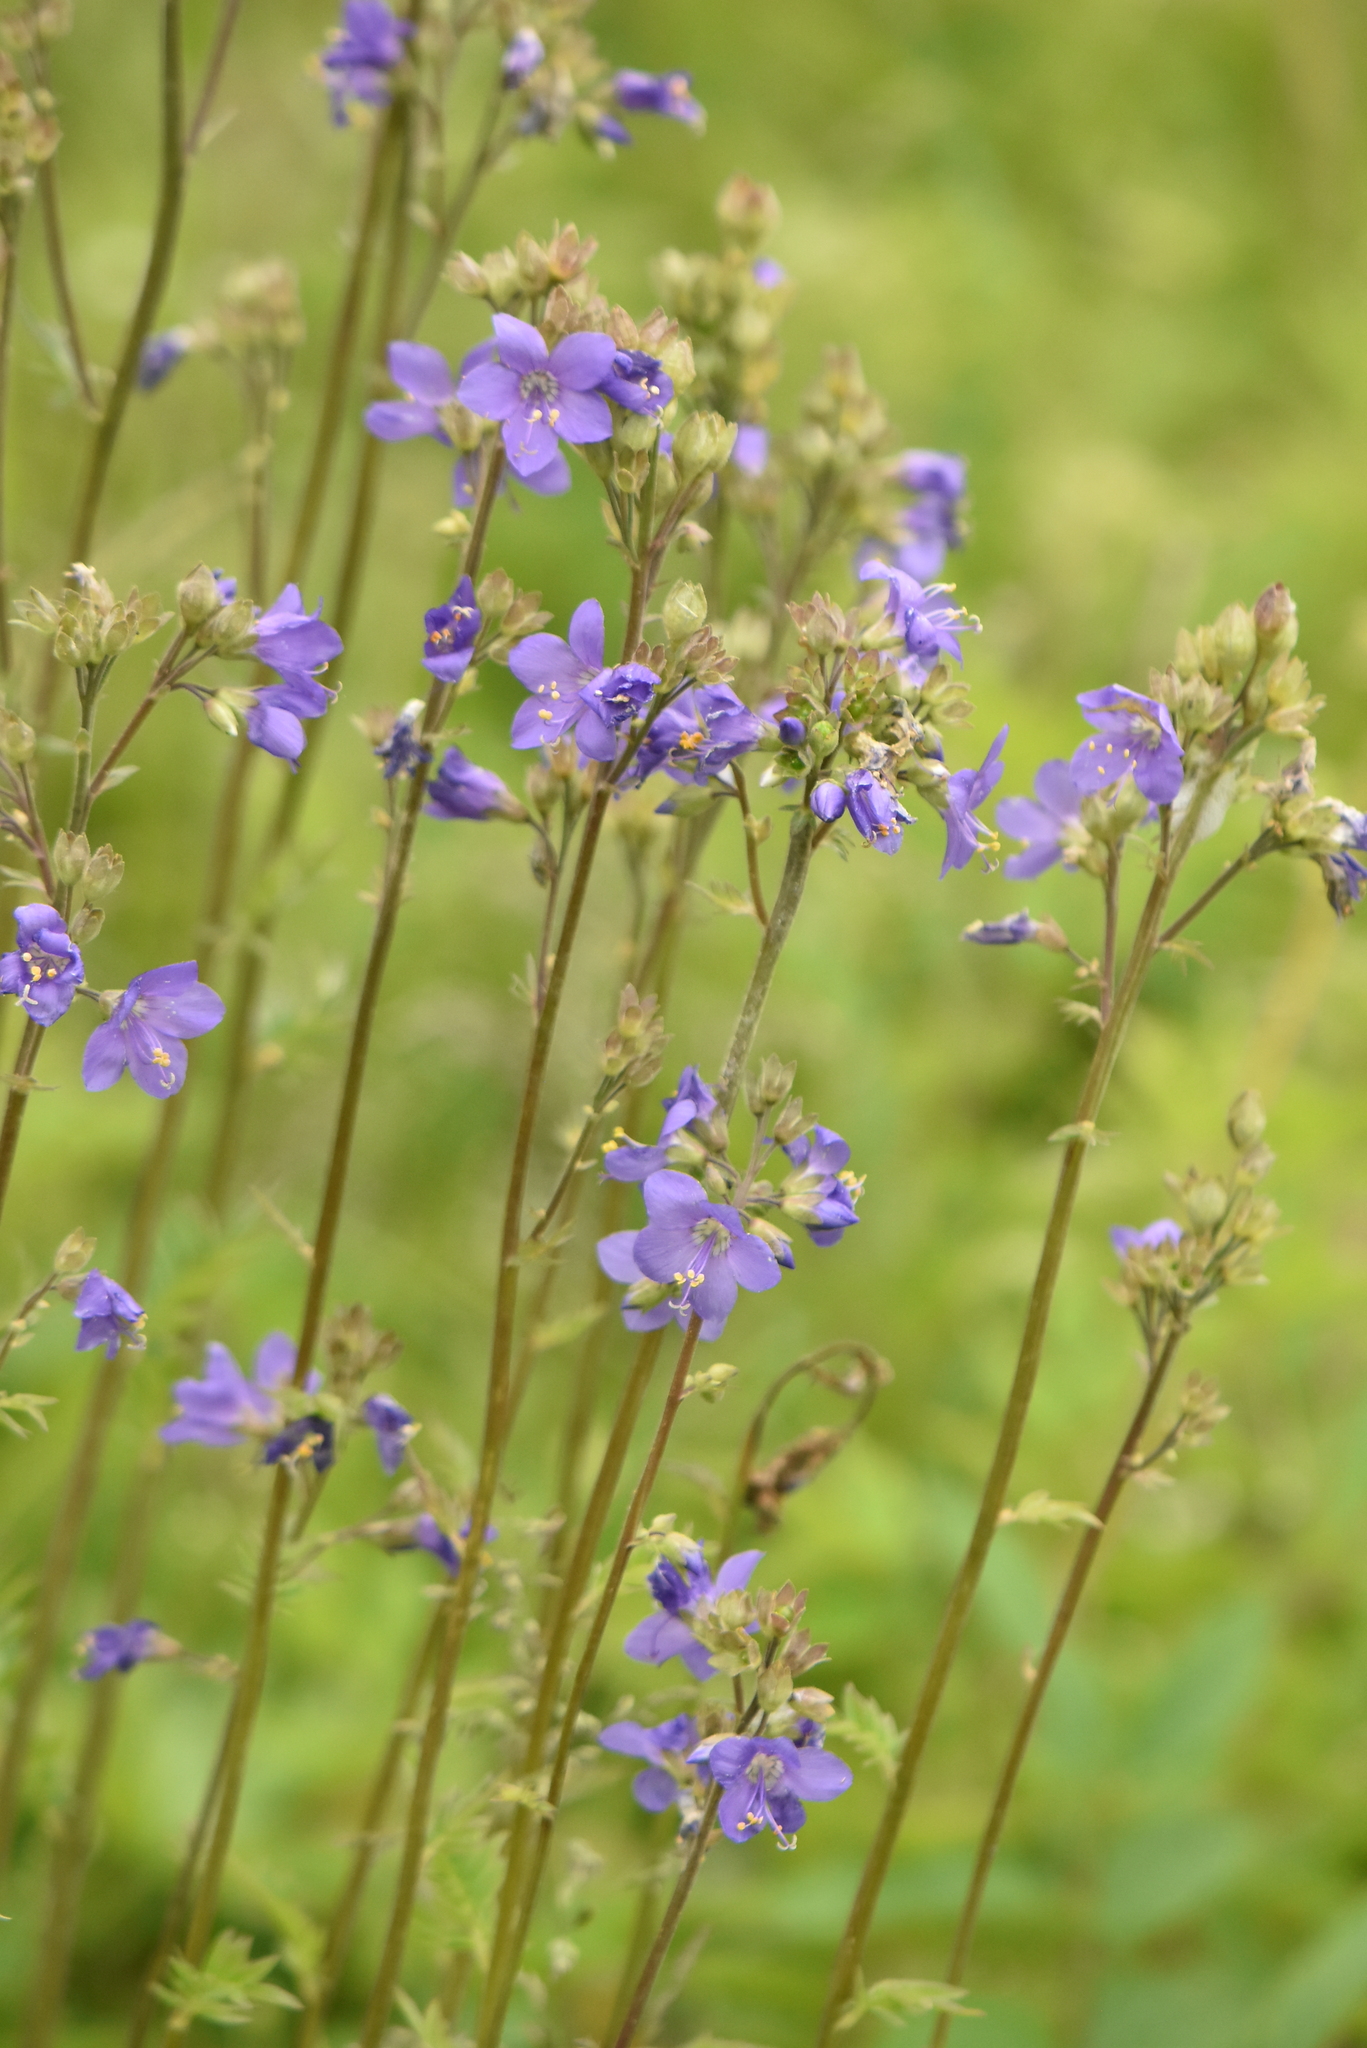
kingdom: Plantae
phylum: Tracheophyta
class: Magnoliopsida
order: Ericales
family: Polemoniaceae
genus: Polemonium
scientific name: Polemonium caeruleum
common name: Jacob's-ladder
